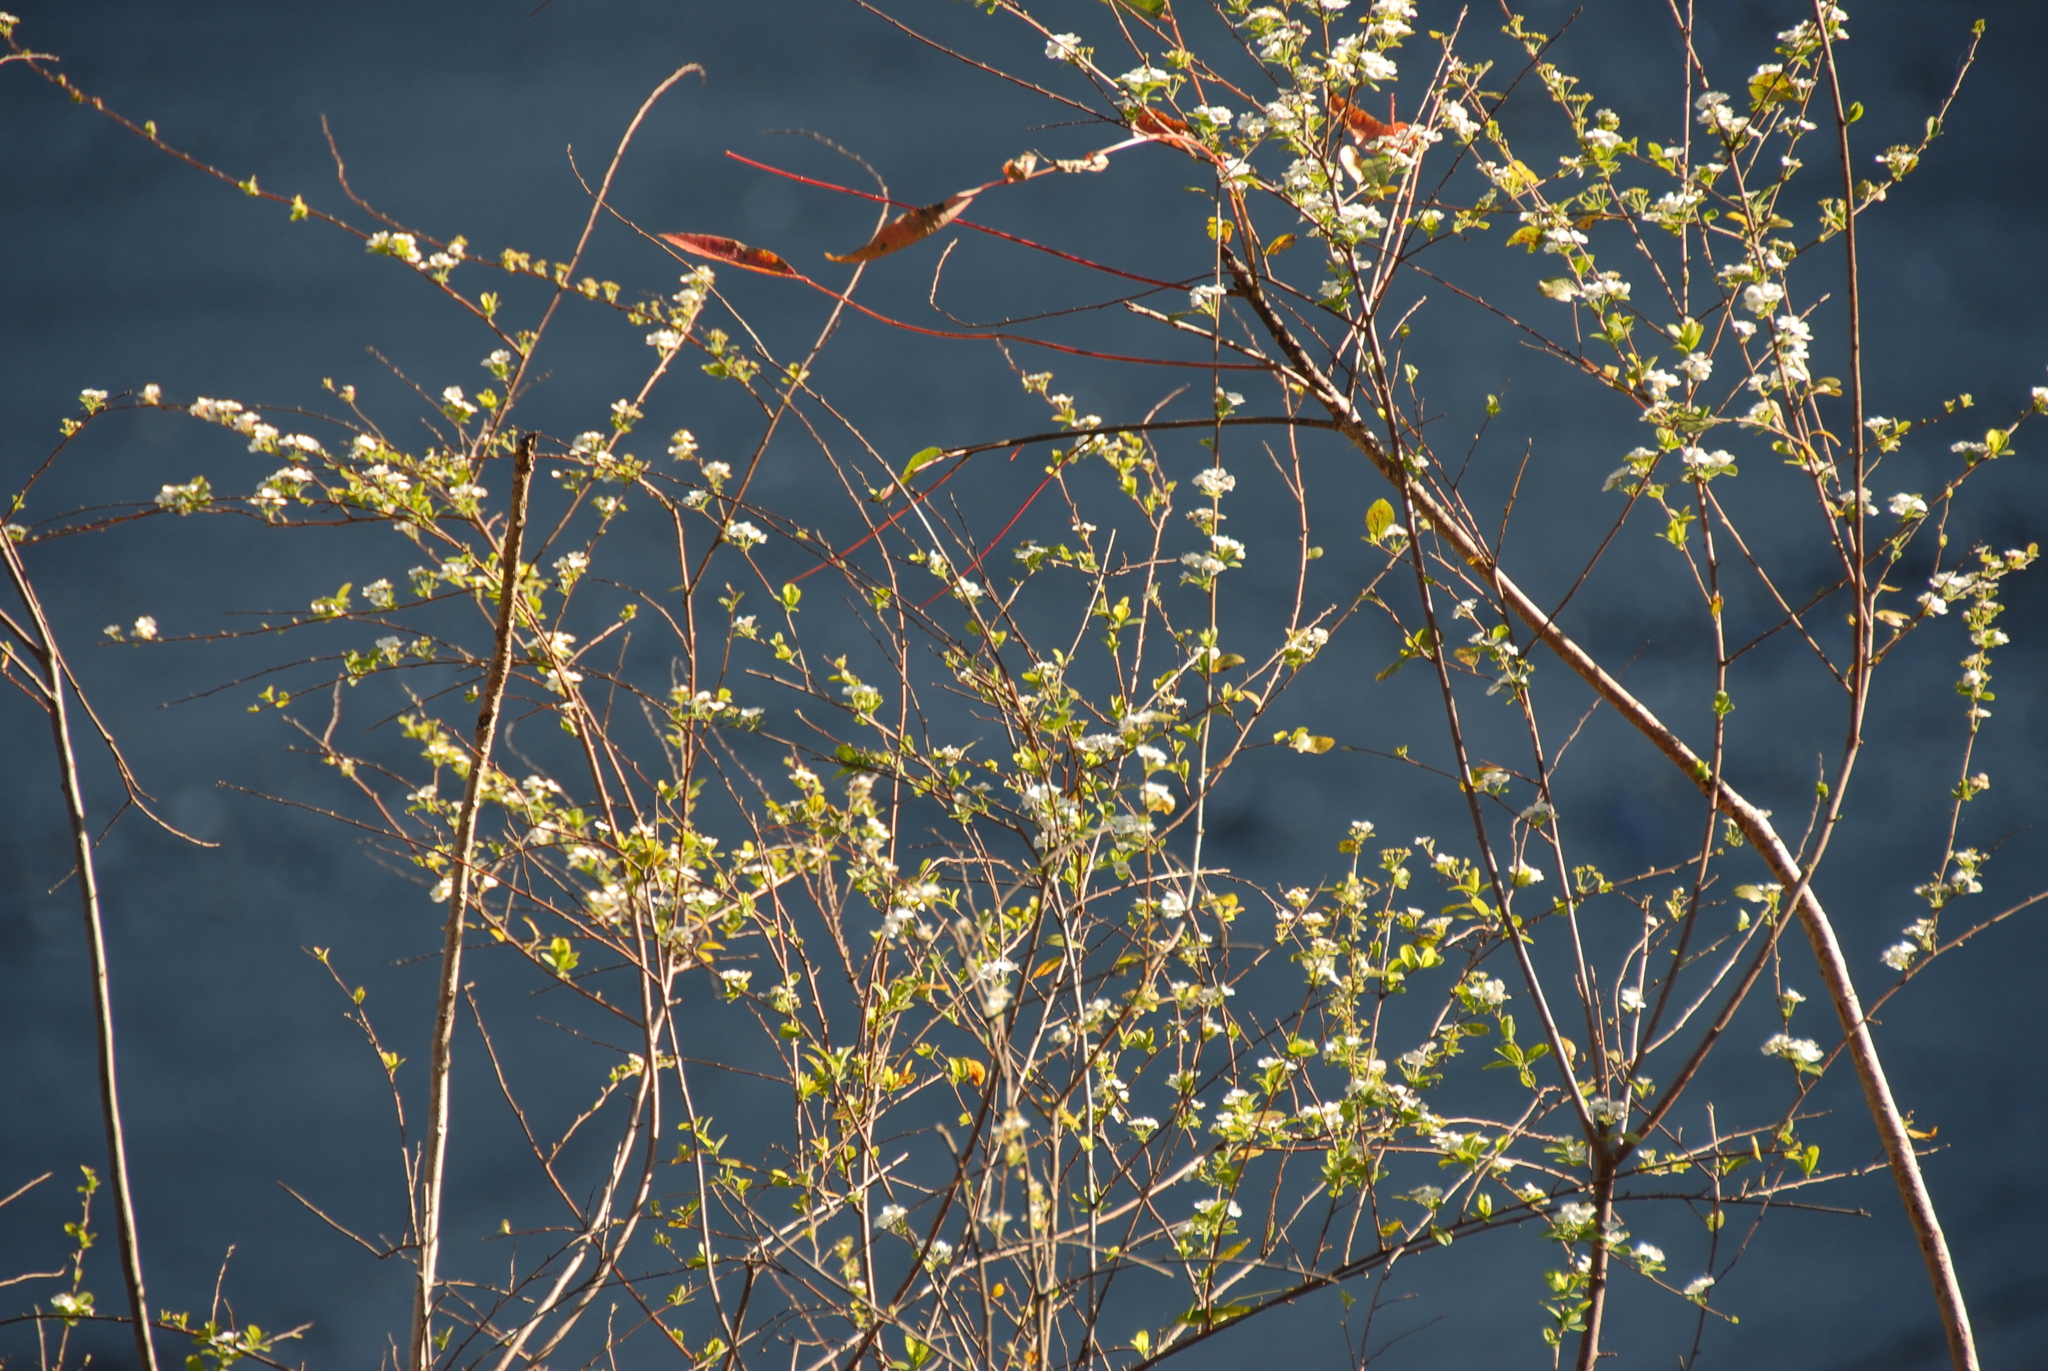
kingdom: Plantae
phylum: Tracheophyta
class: Magnoliopsida
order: Rosales
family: Rosaceae
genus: Spiraea
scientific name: Spiraea prunifolia
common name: Bridal-wreath spiraea
